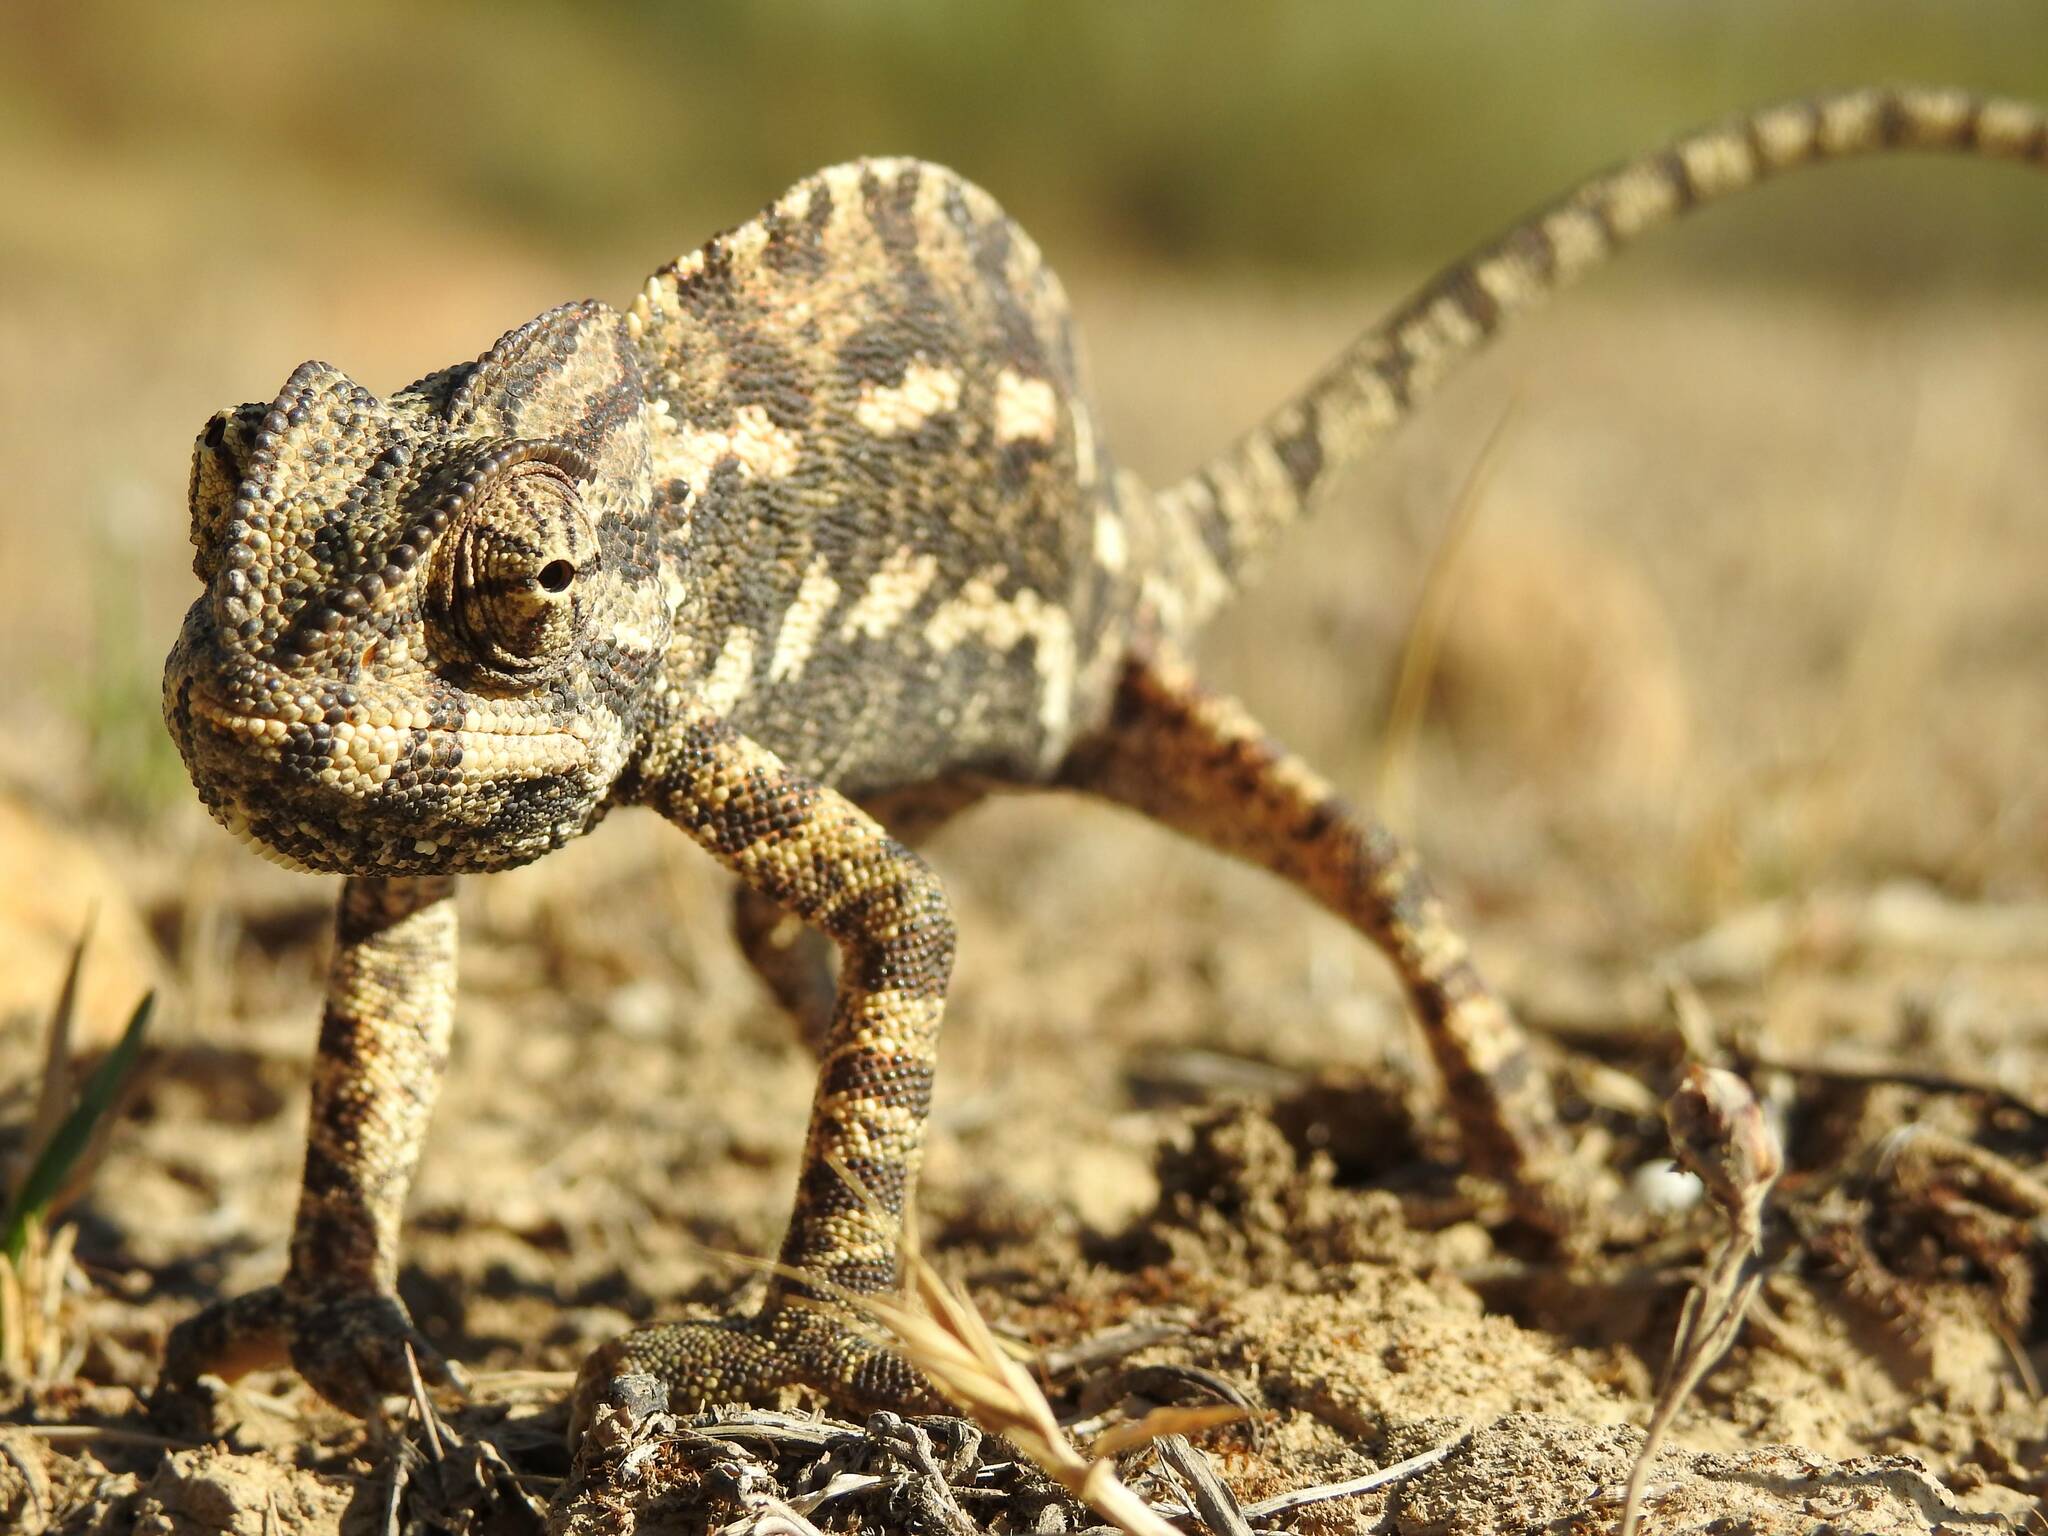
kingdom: Animalia
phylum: Chordata
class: Squamata
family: Chamaeleonidae
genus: Chamaeleo
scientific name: Chamaeleo chamaeleon
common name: Mediterranean chameleon
